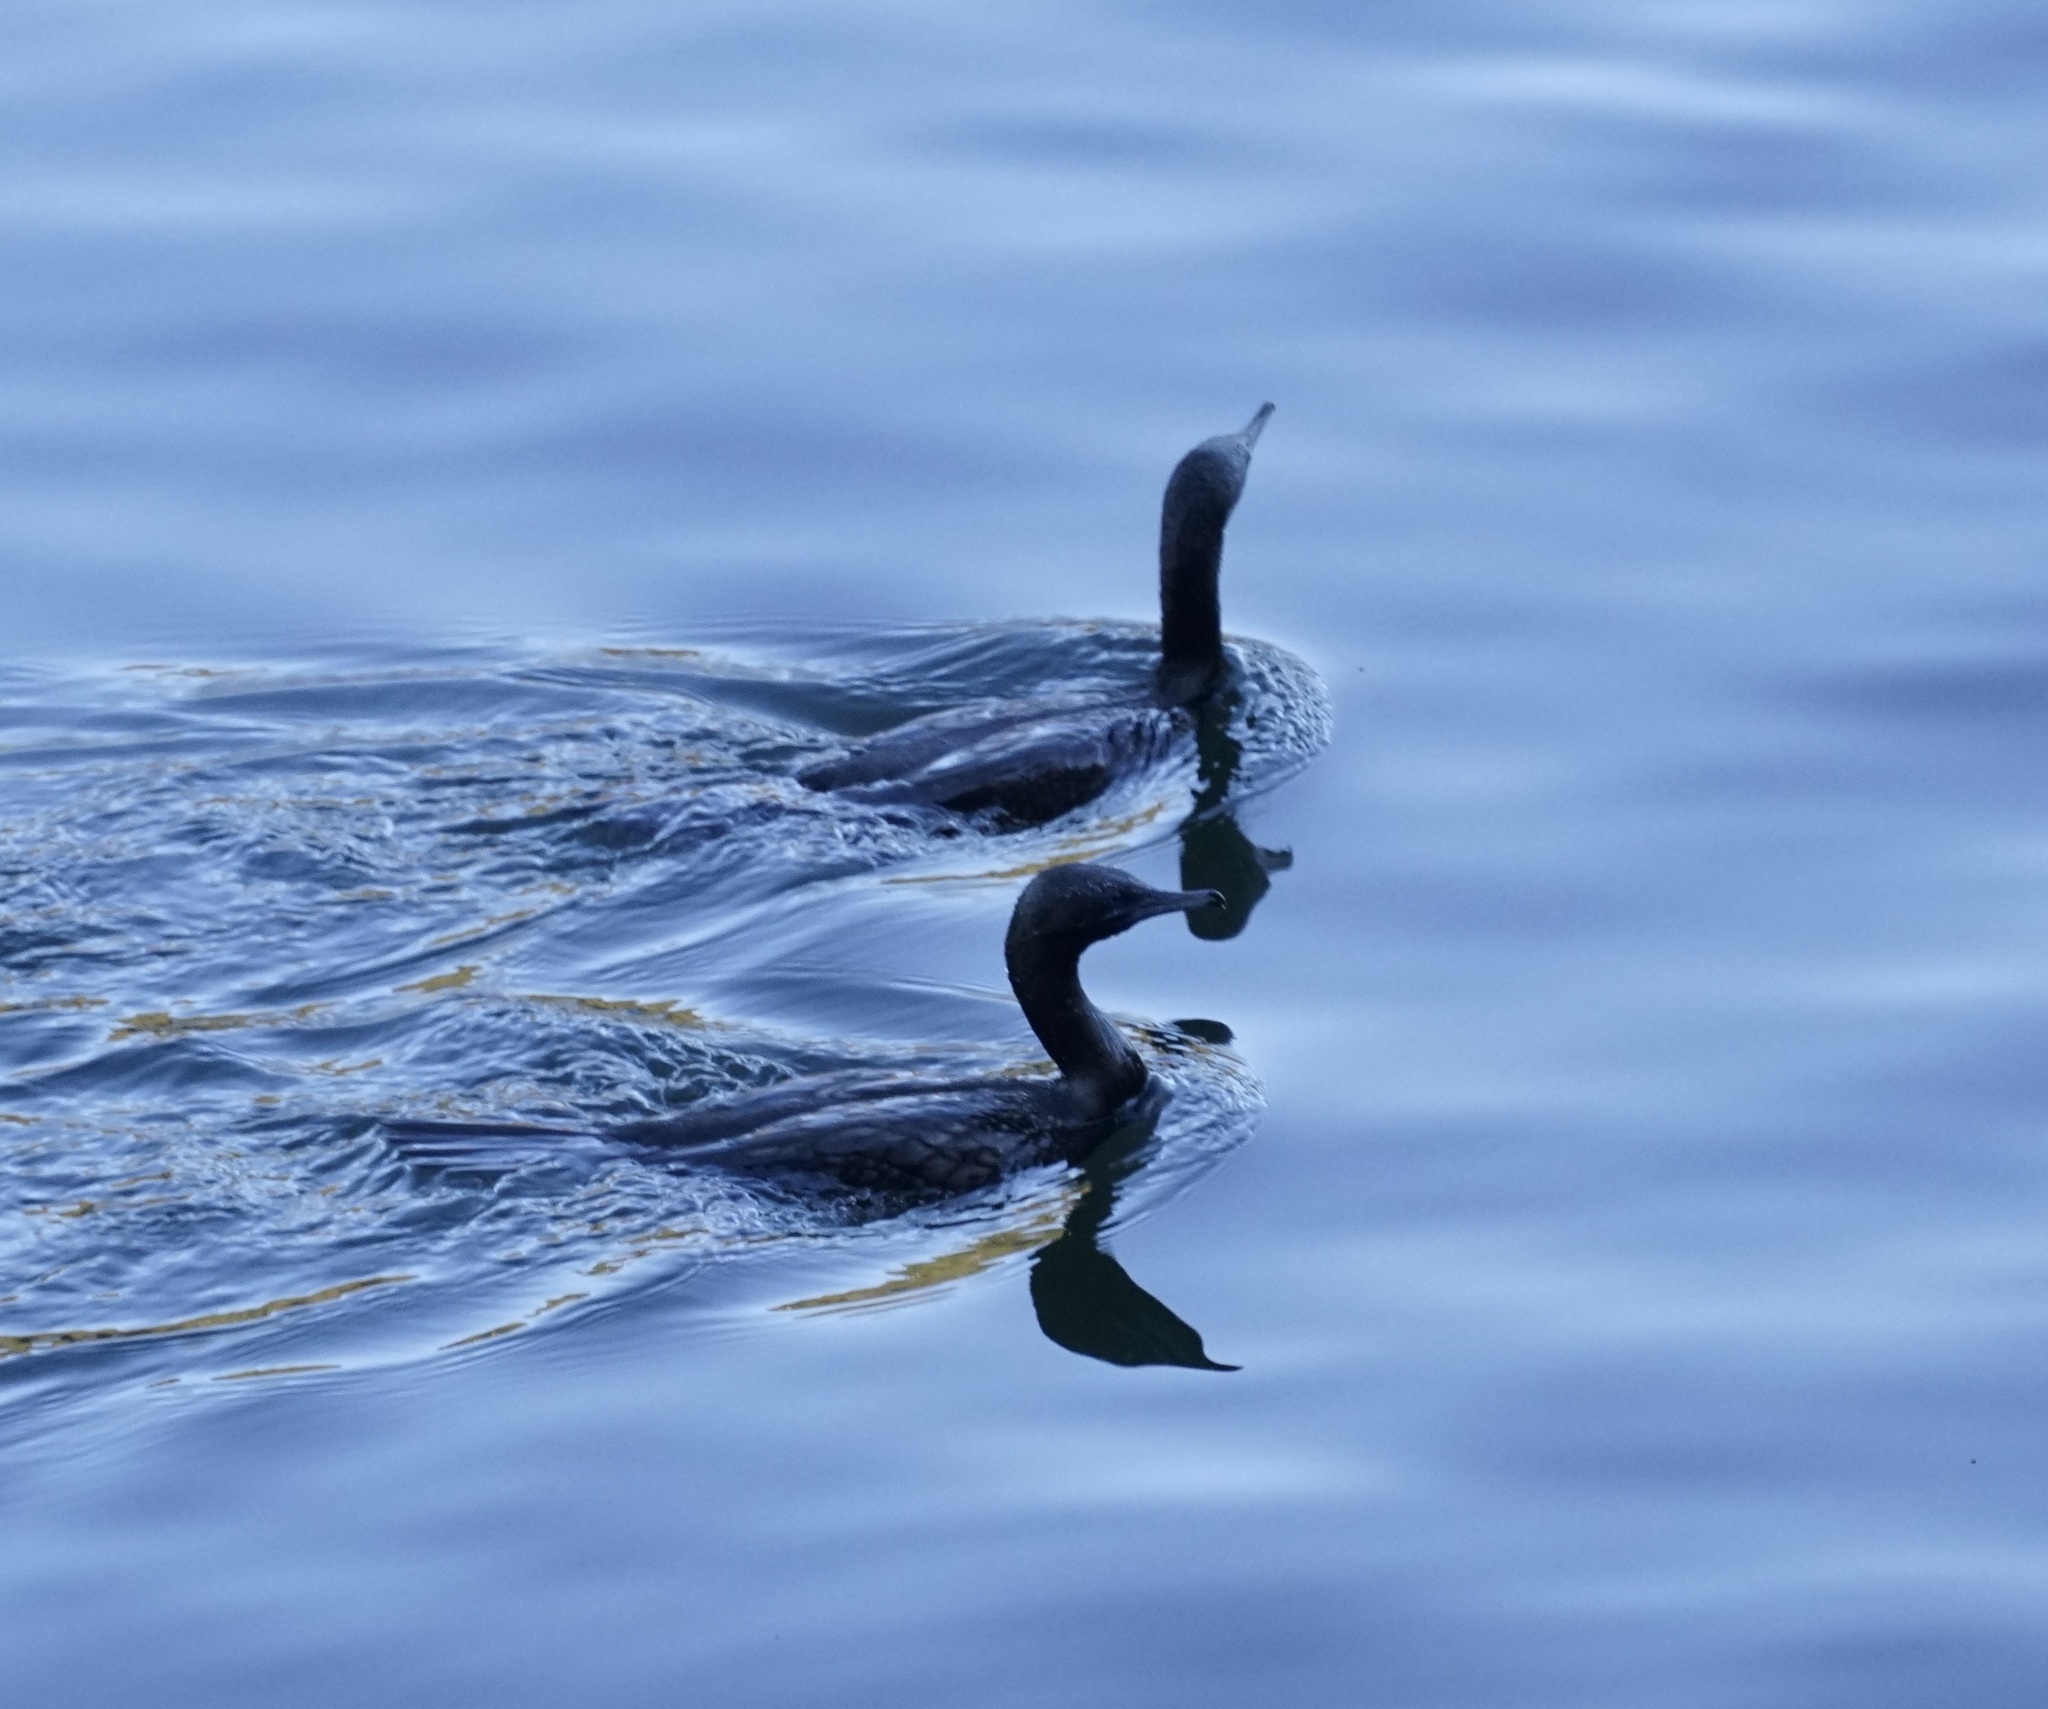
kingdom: Animalia
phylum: Chordata
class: Aves
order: Suliformes
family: Phalacrocoracidae
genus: Phalacrocorax
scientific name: Phalacrocorax sulcirostris
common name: Little black cormorant
